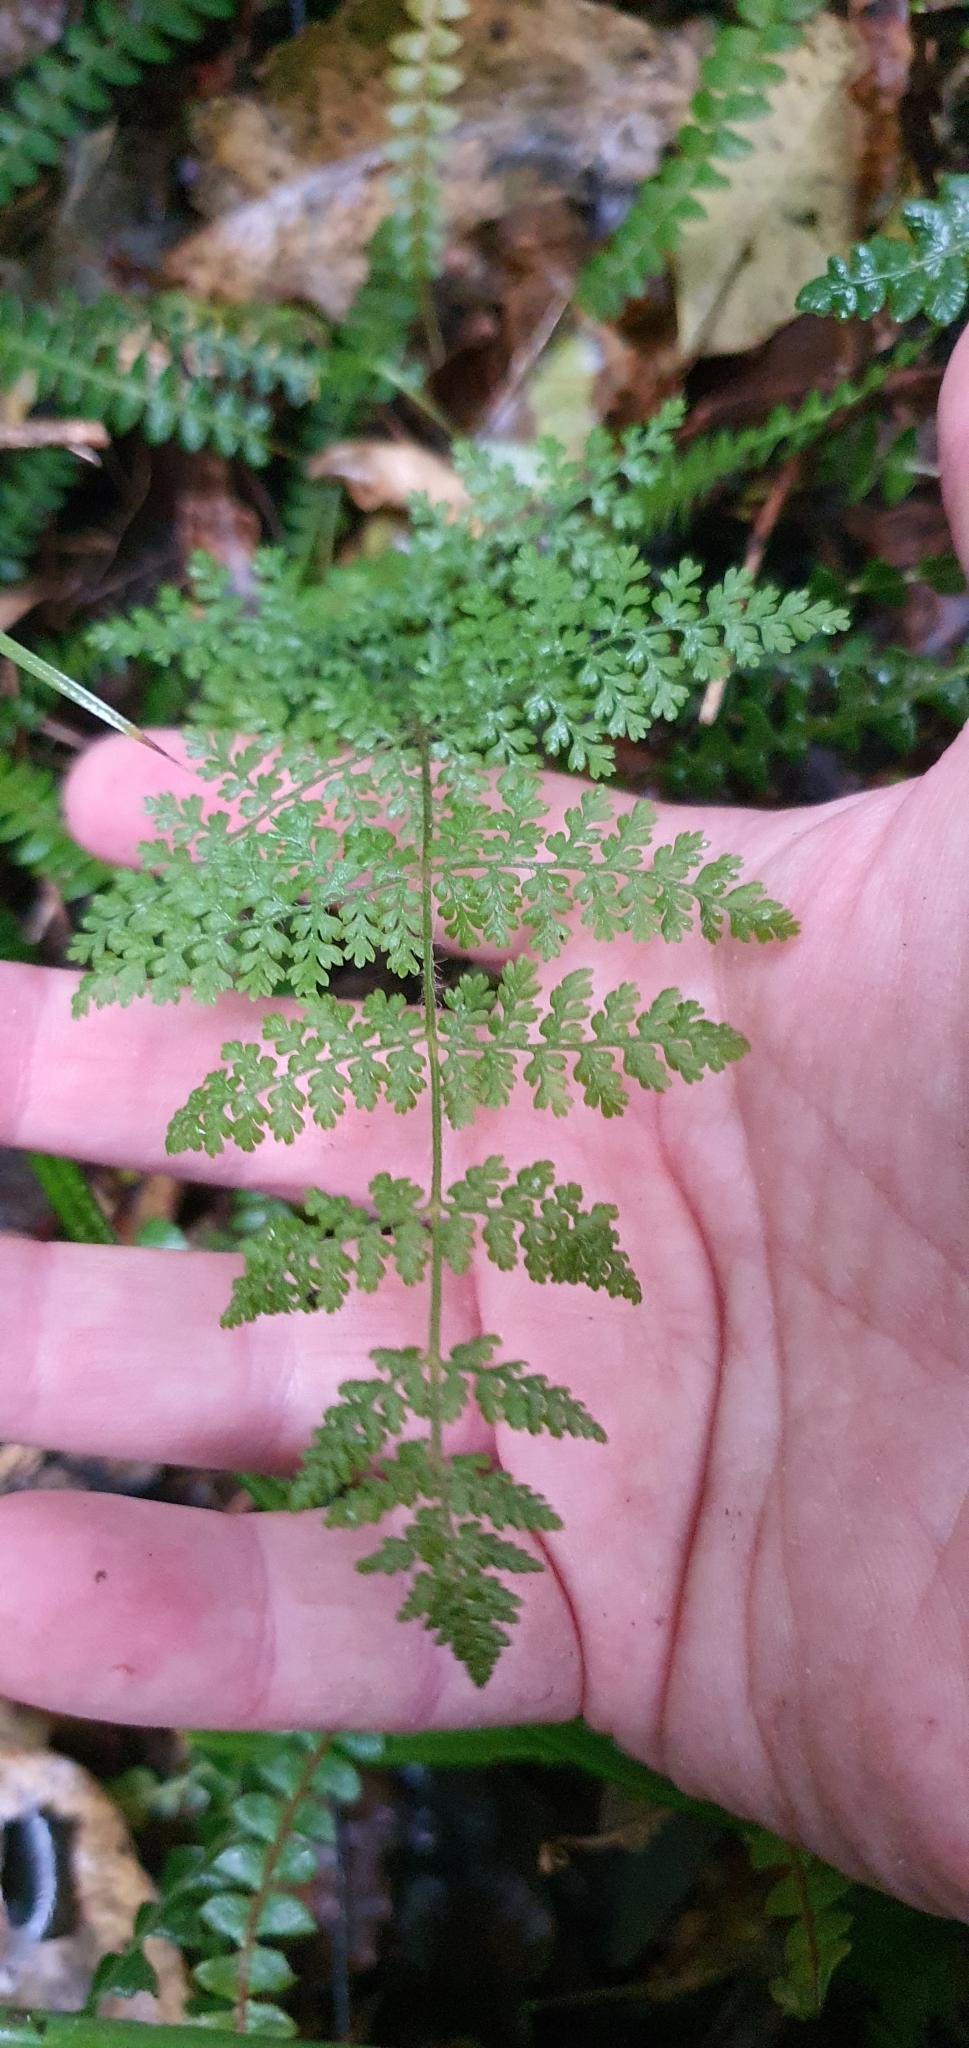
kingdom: Plantae
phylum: Tracheophyta
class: Polypodiopsida
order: Polypodiales
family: Dennstaedtiaceae
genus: Hypolepis
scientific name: Hypolepis millefolium
